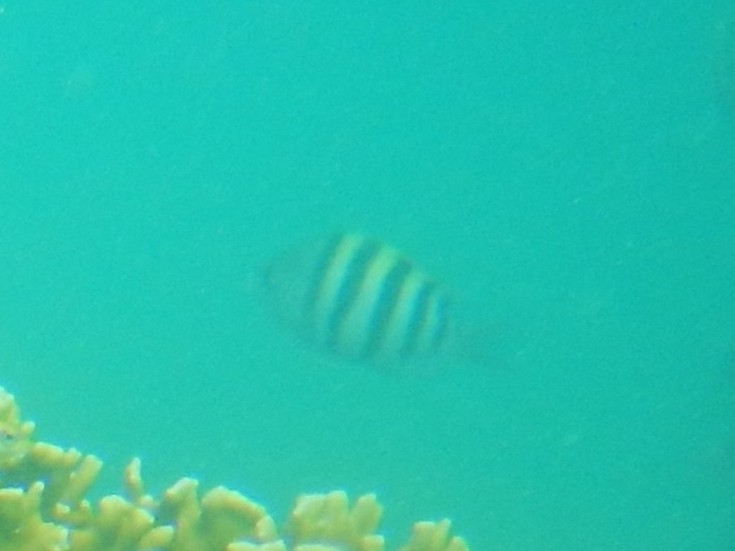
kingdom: Animalia
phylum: Chordata
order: Perciformes
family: Pomacentridae
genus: Abudefduf
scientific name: Abudefduf saxatilis
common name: Sergeant major
